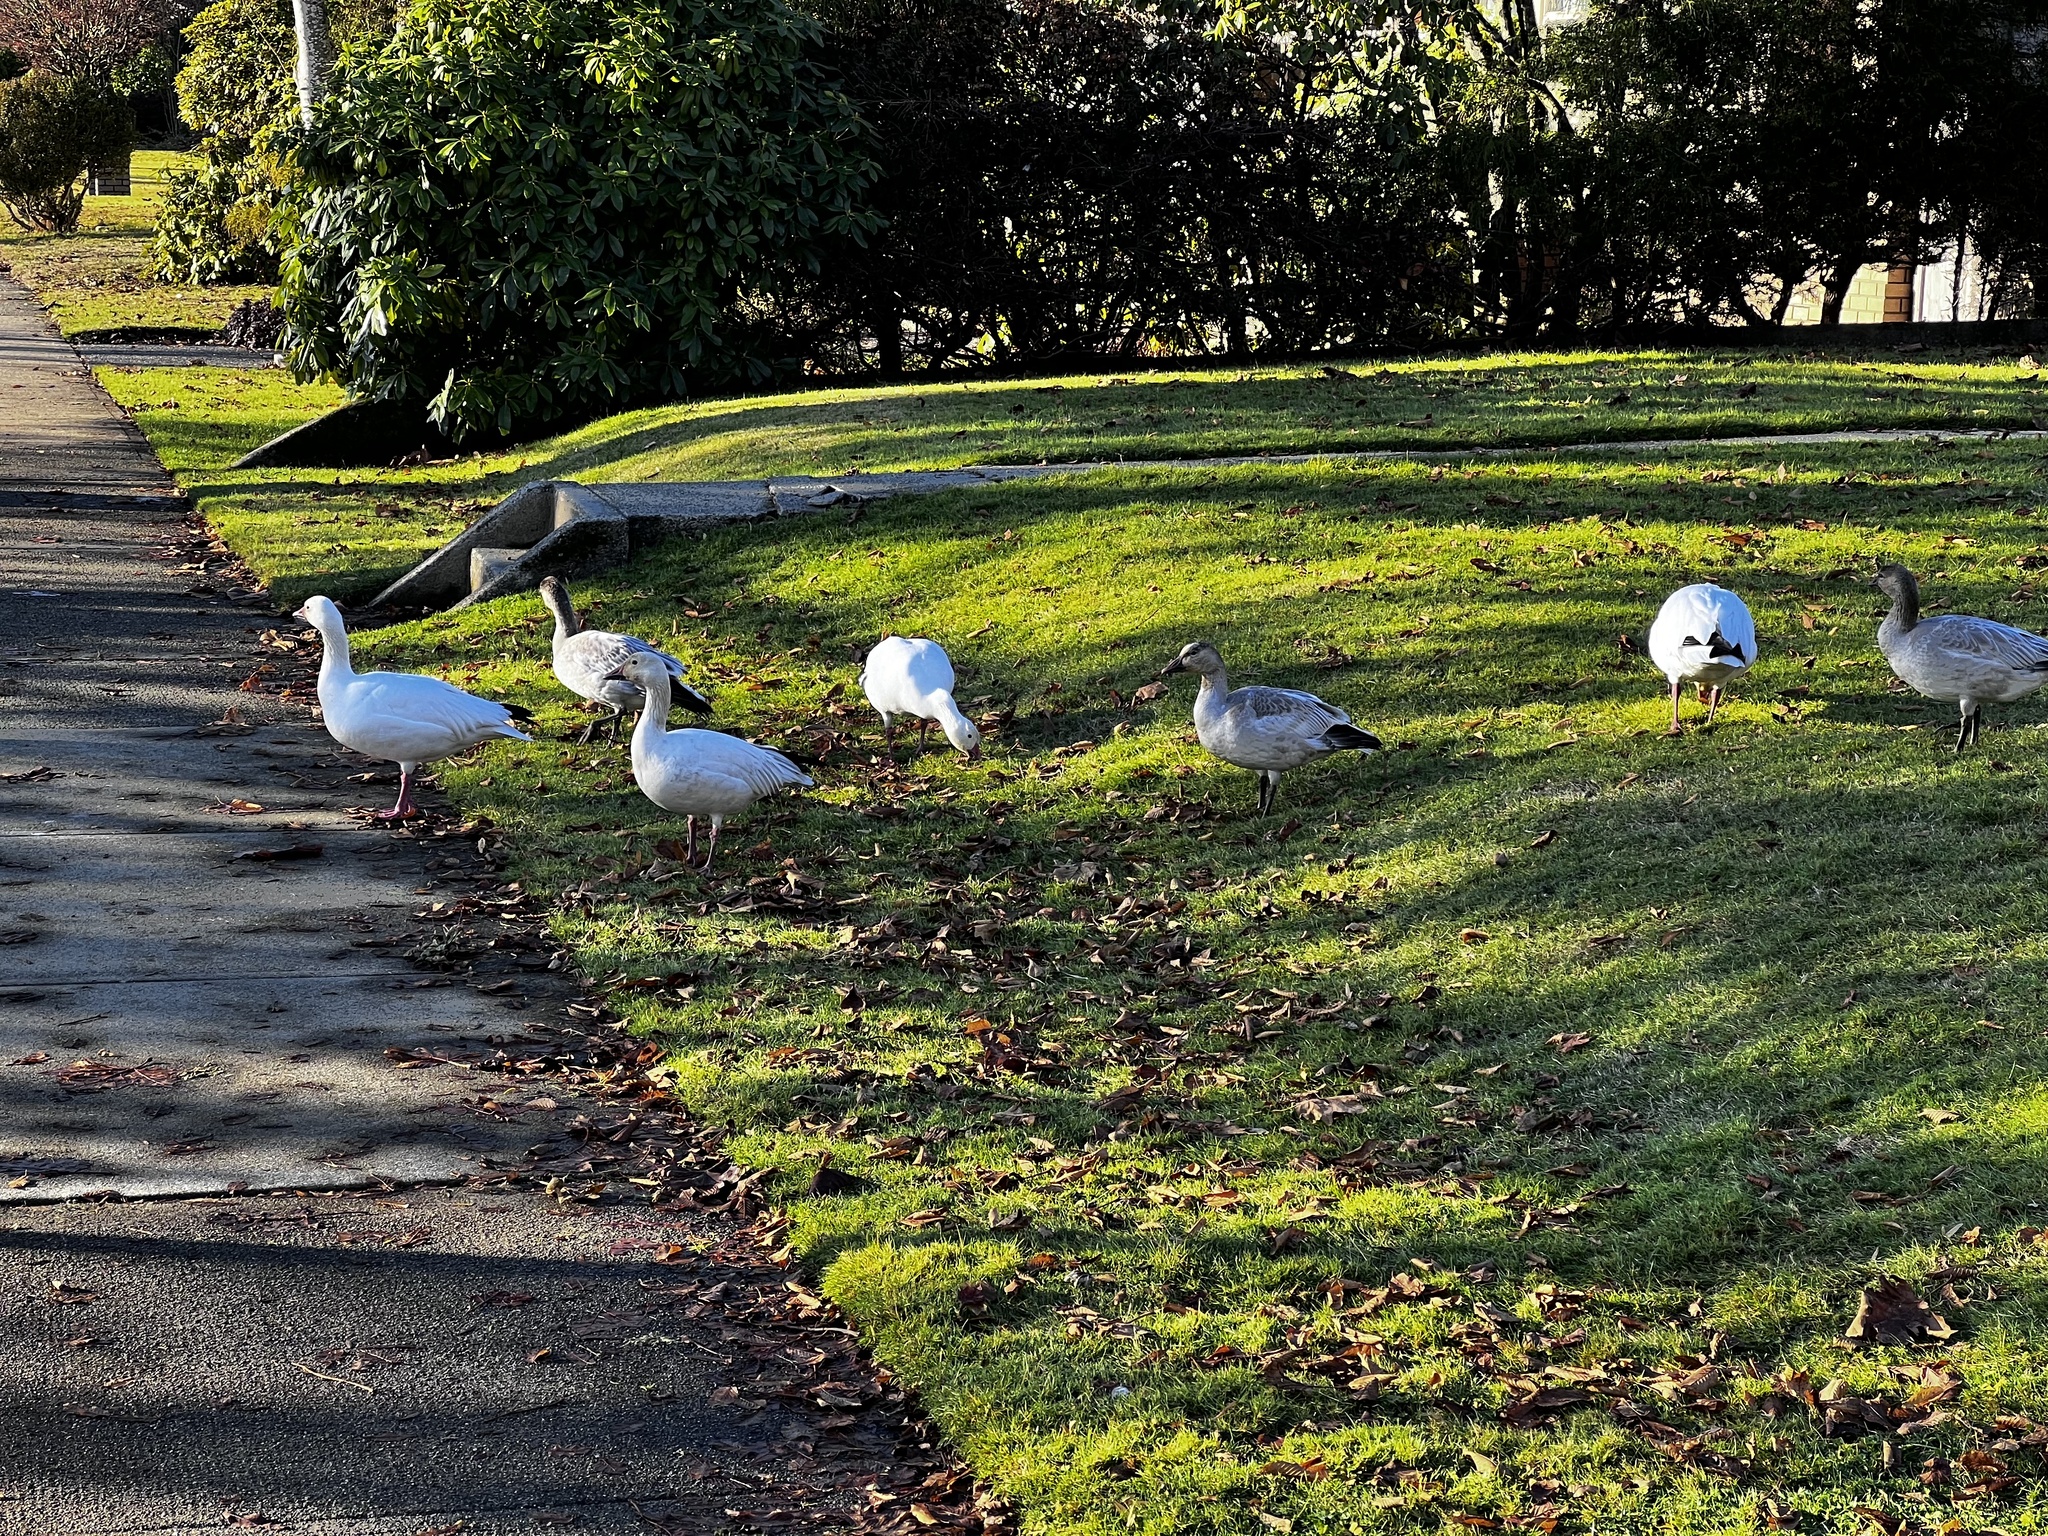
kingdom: Animalia
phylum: Chordata
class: Aves
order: Anseriformes
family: Anatidae
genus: Anser
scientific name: Anser caerulescens
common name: Snow goose
